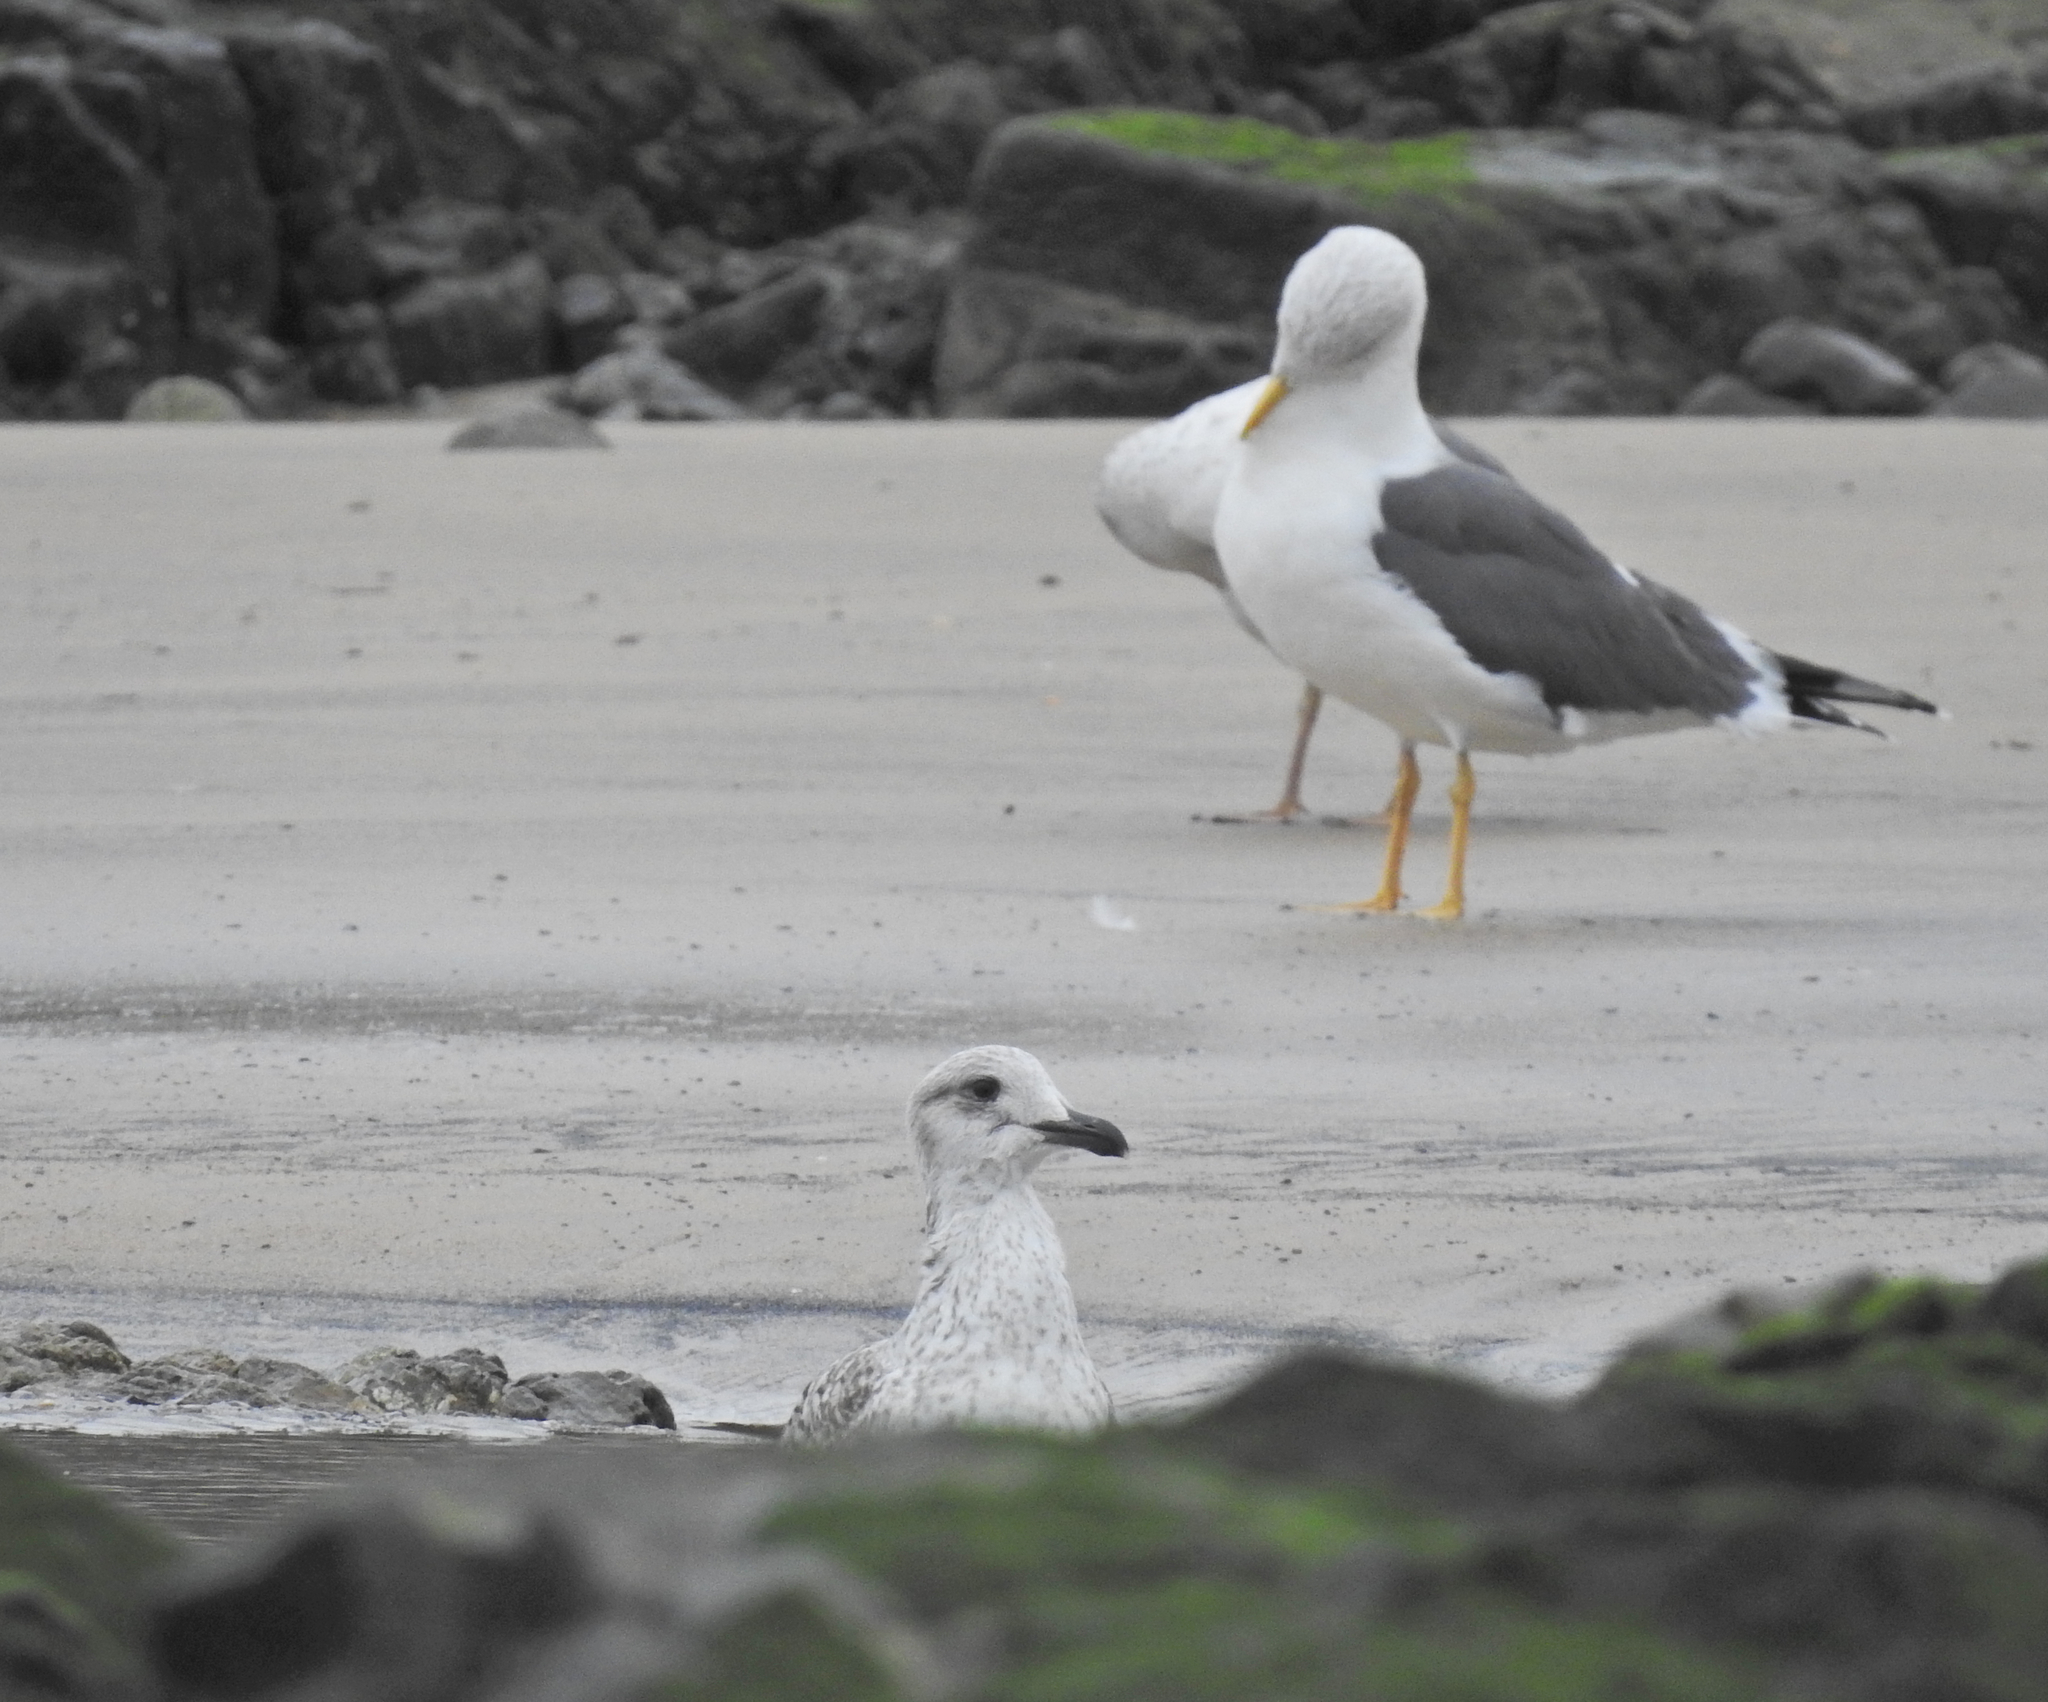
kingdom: Animalia
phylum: Chordata
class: Aves
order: Charadriiformes
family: Laridae
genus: Larus
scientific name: Larus fuscus
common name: Lesser black-backed gull
